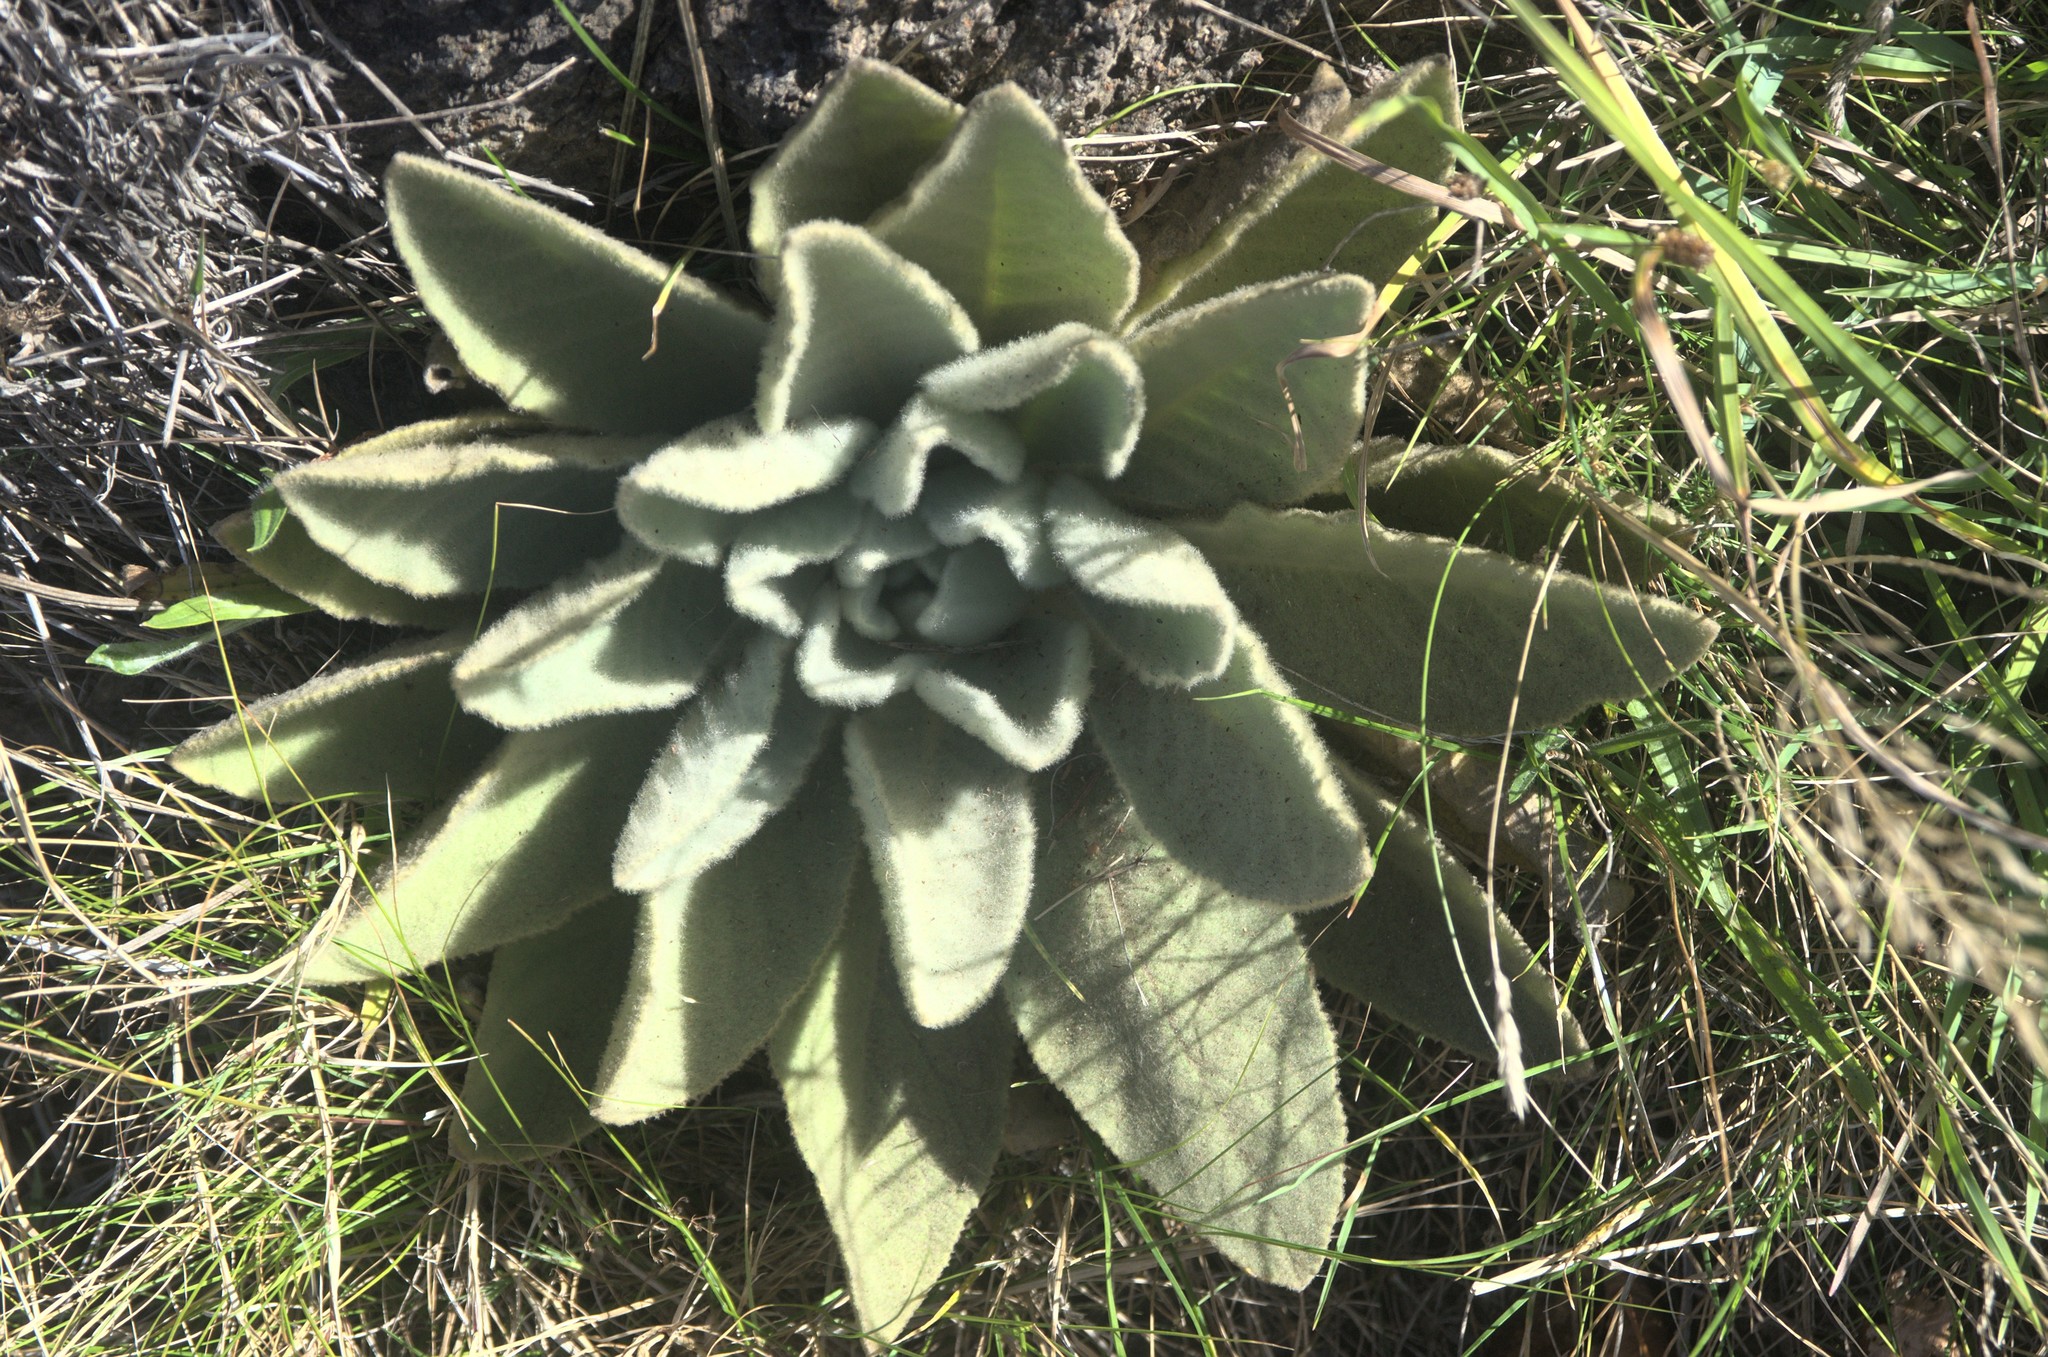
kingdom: Plantae
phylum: Tracheophyta
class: Magnoliopsida
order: Lamiales
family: Scrophulariaceae
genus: Verbascum
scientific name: Verbascum thapsus
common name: Common mullein
